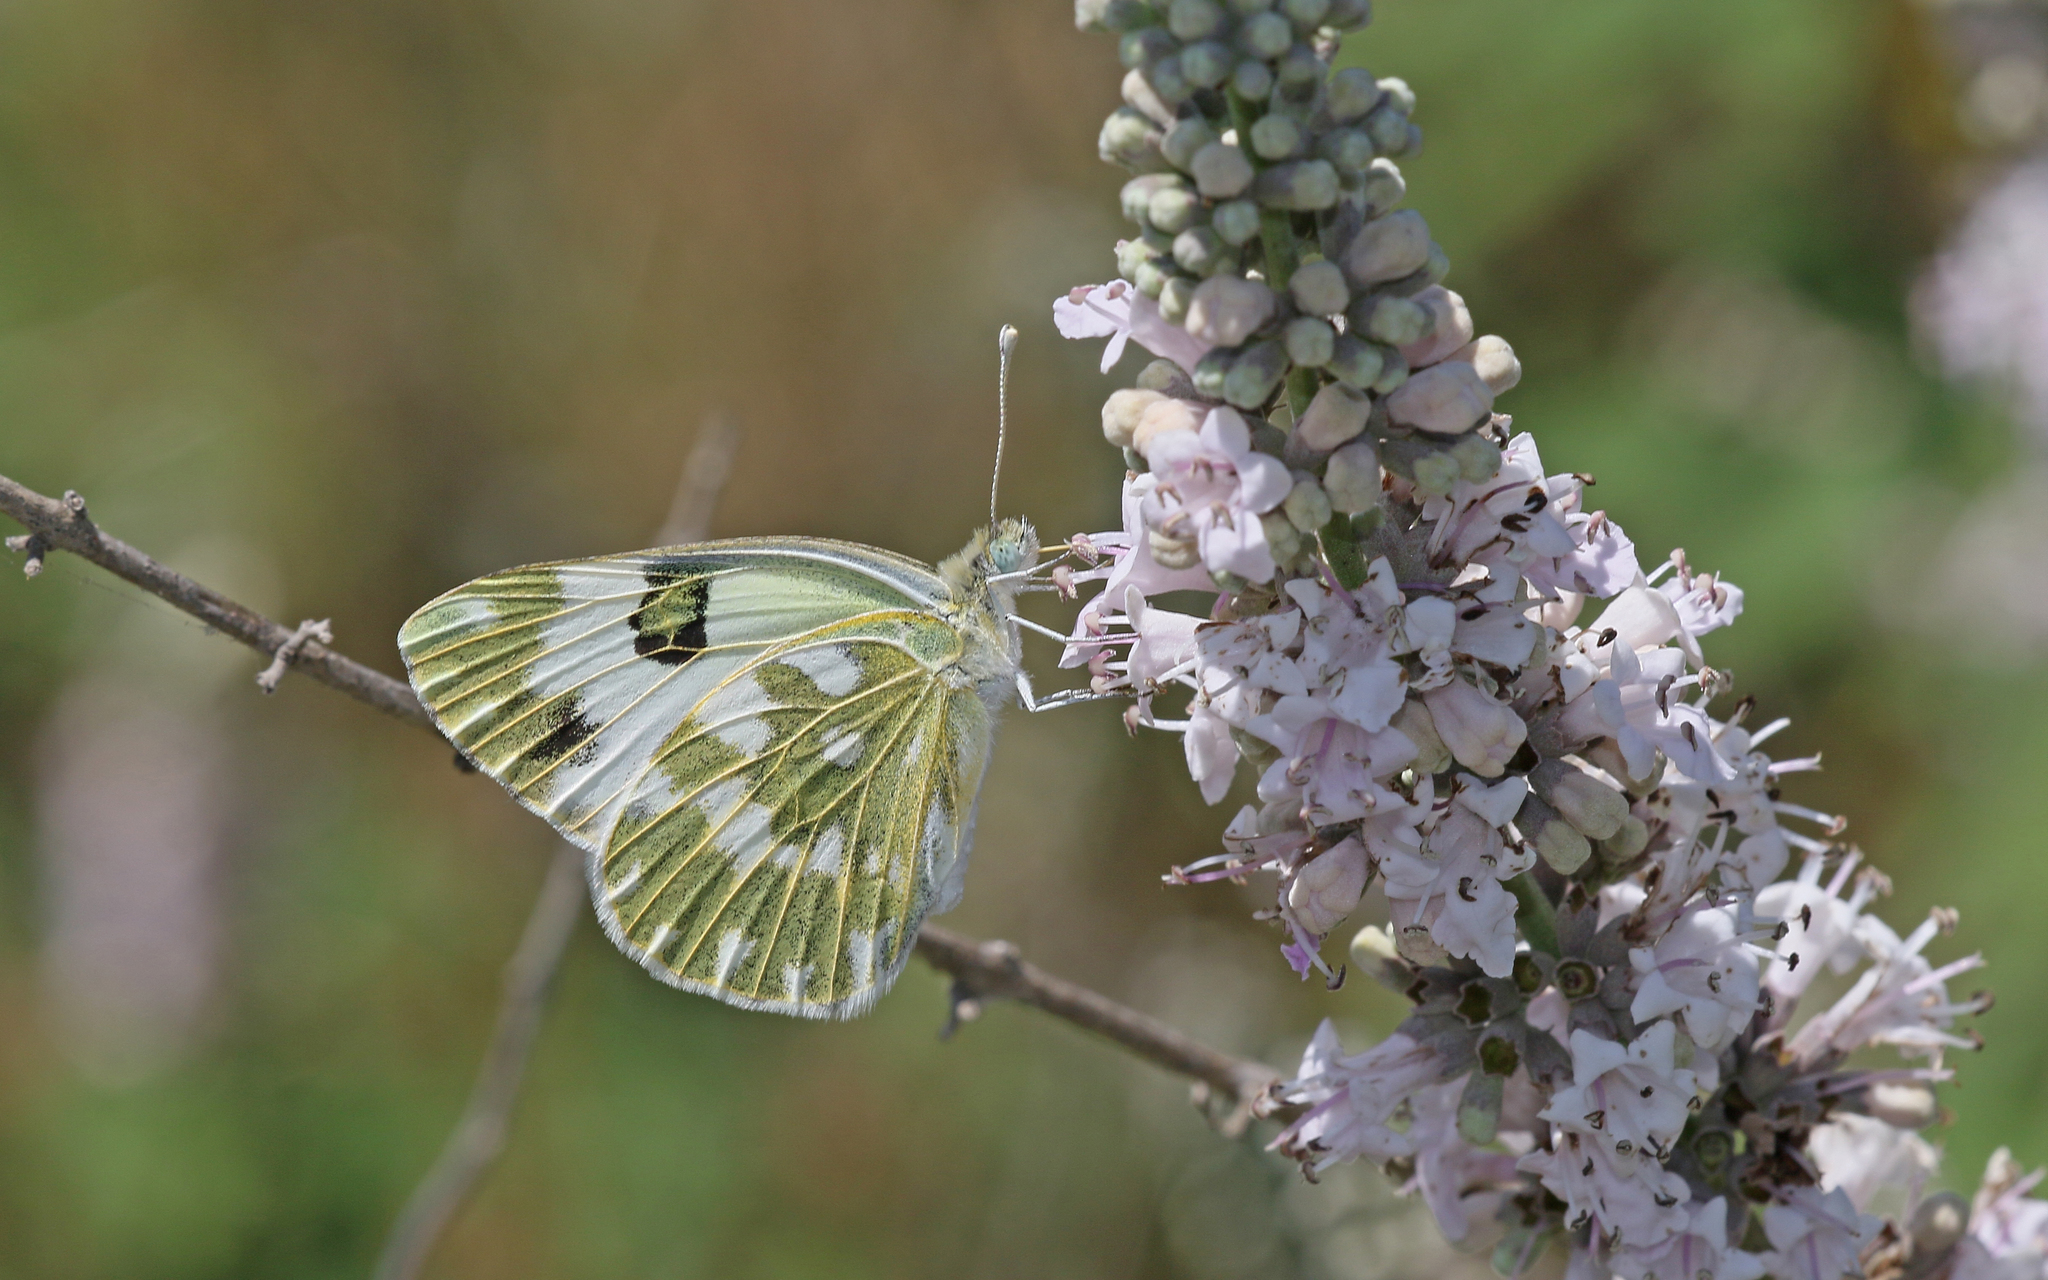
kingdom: Animalia
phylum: Arthropoda
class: Insecta
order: Lepidoptera
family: Pieridae
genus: Pontia
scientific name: Pontia edusa
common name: Eastern bath white
